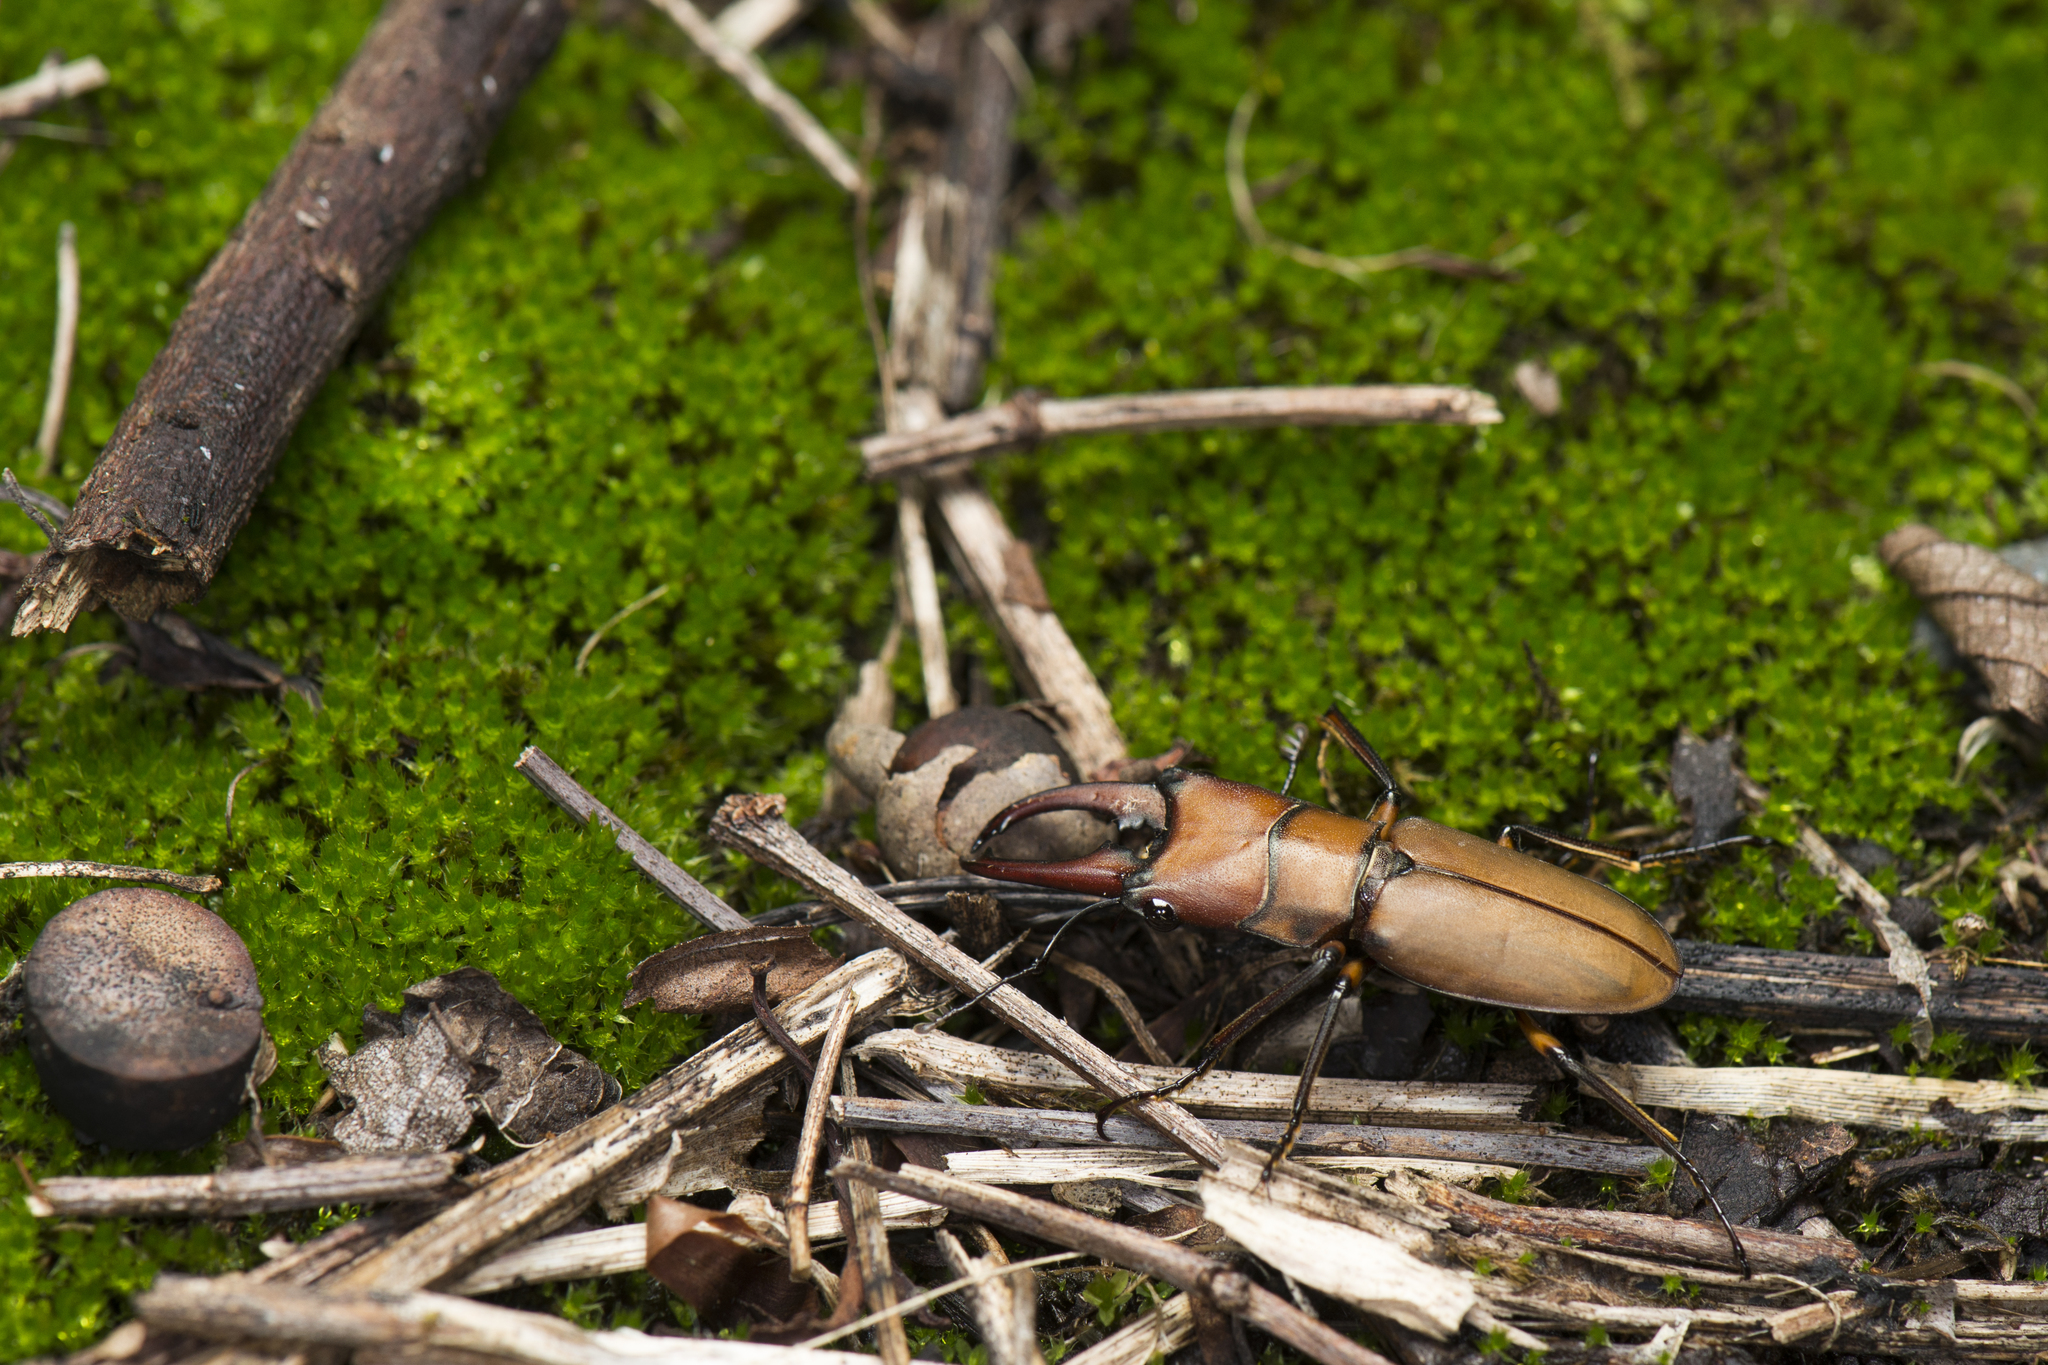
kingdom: Animalia
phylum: Arthropoda
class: Insecta
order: Coleoptera
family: Lucanidae
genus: Cyclommatinus
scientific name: Cyclommatinus scutellaris
